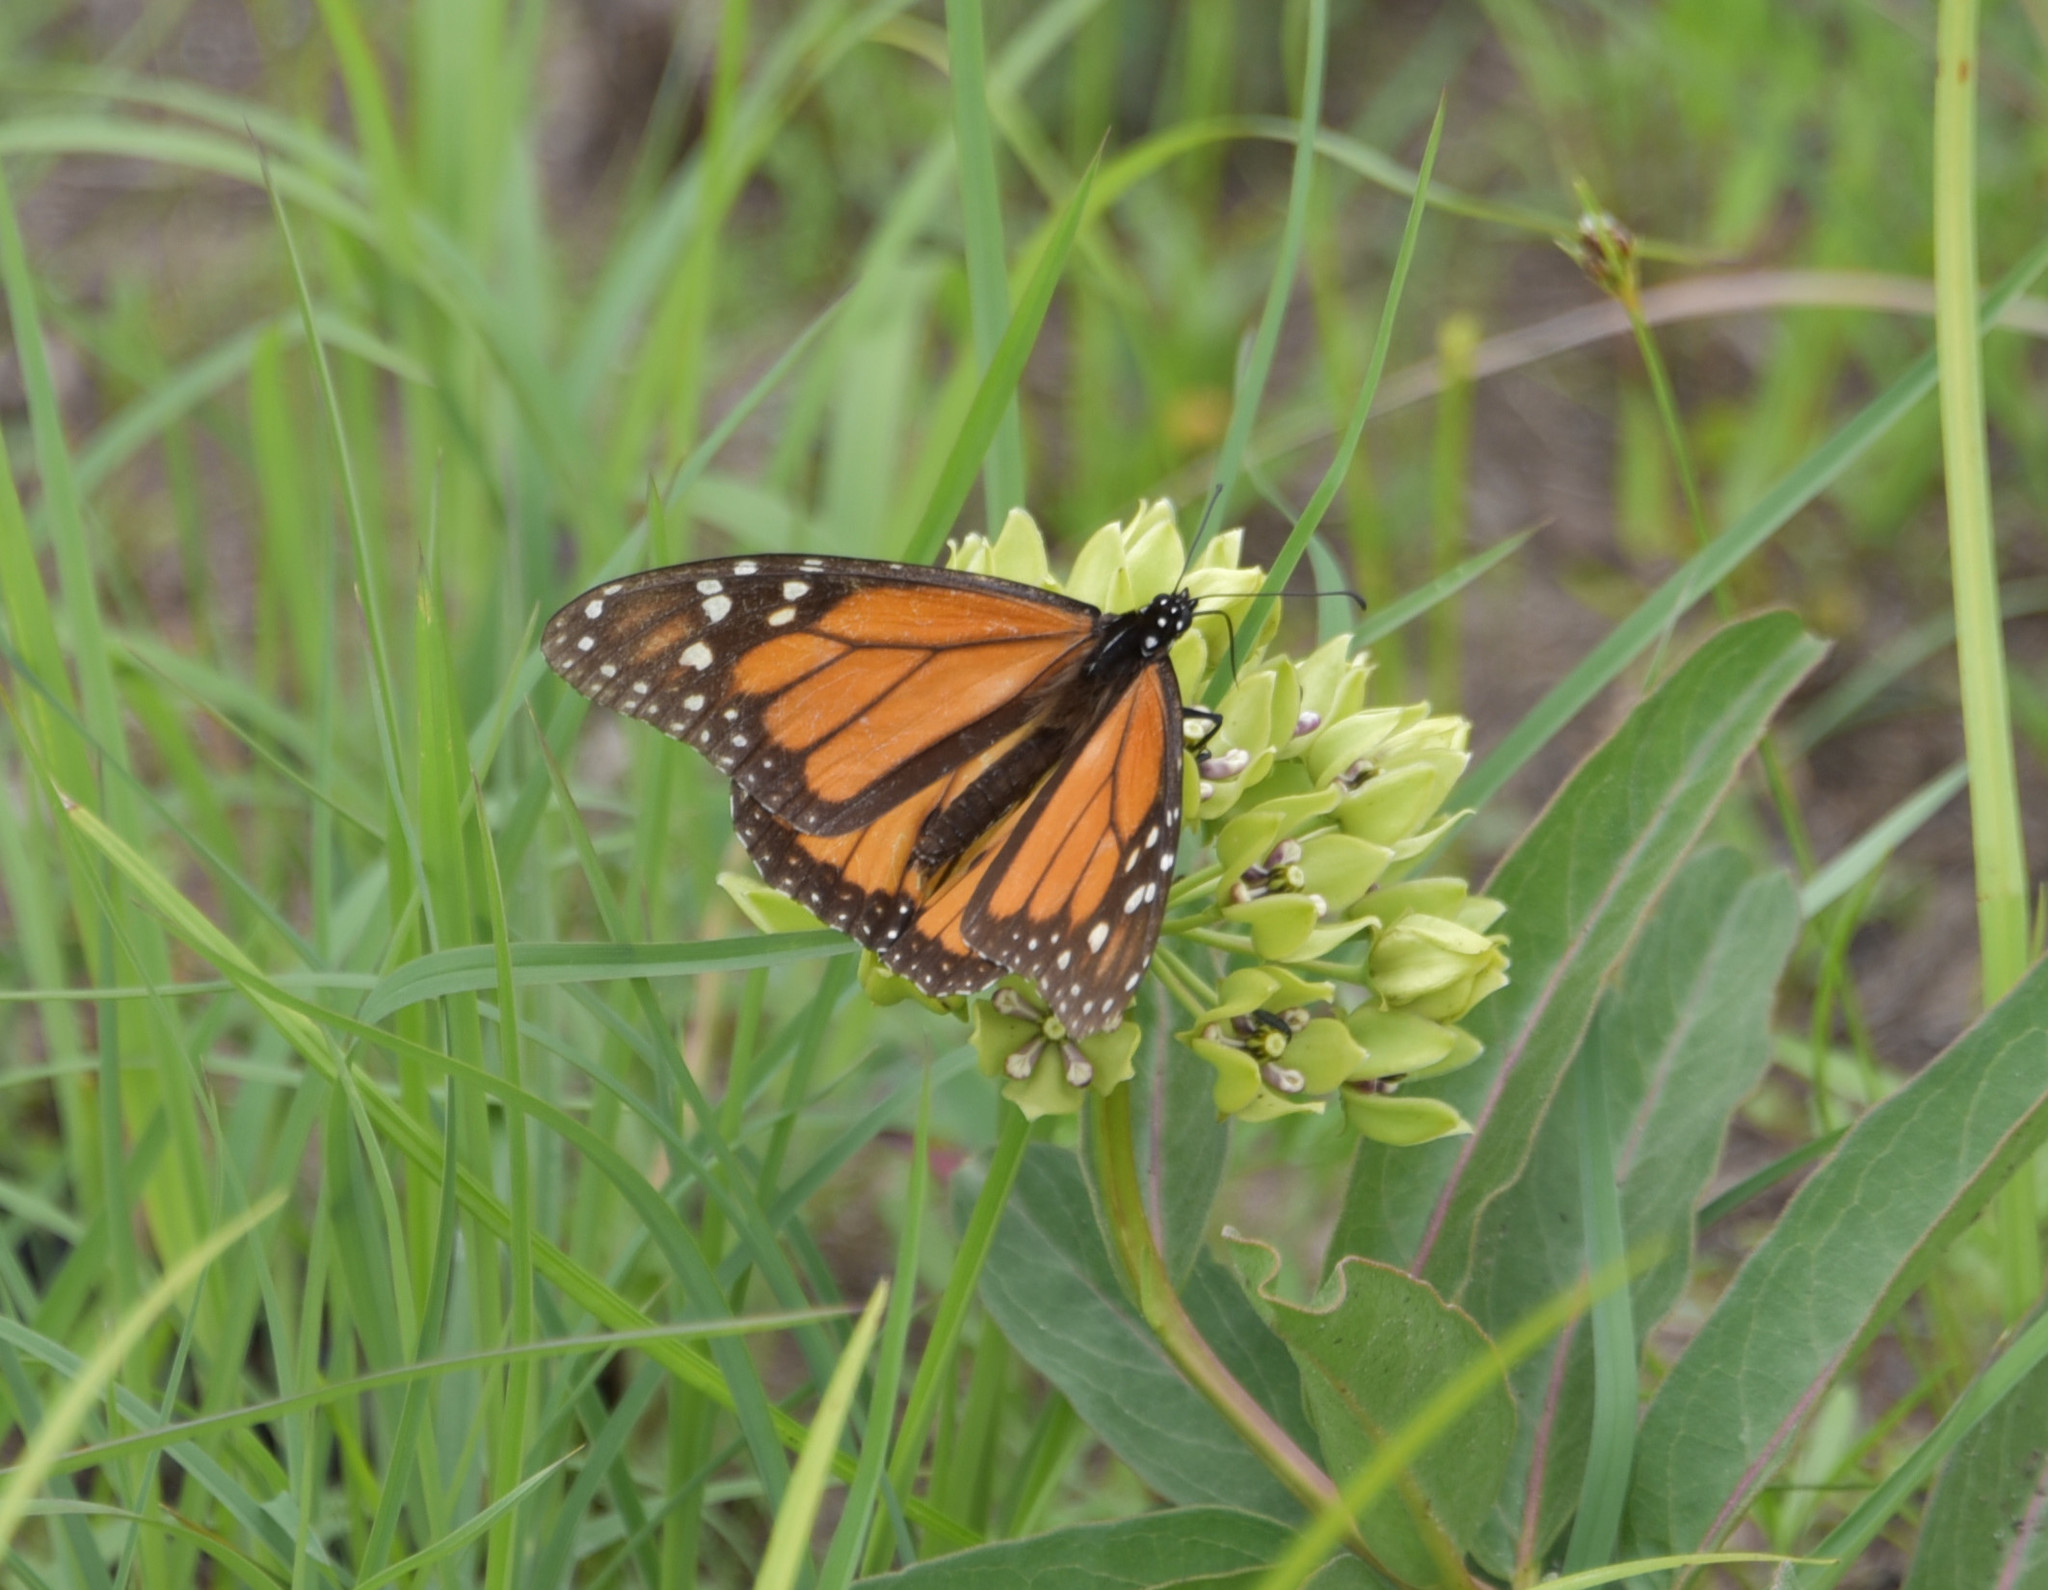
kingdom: Animalia
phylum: Arthropoda
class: Insecta
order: Lepidoptera
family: Nymphalidae
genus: Danaus
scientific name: Danaus plexippus
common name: Monarch
